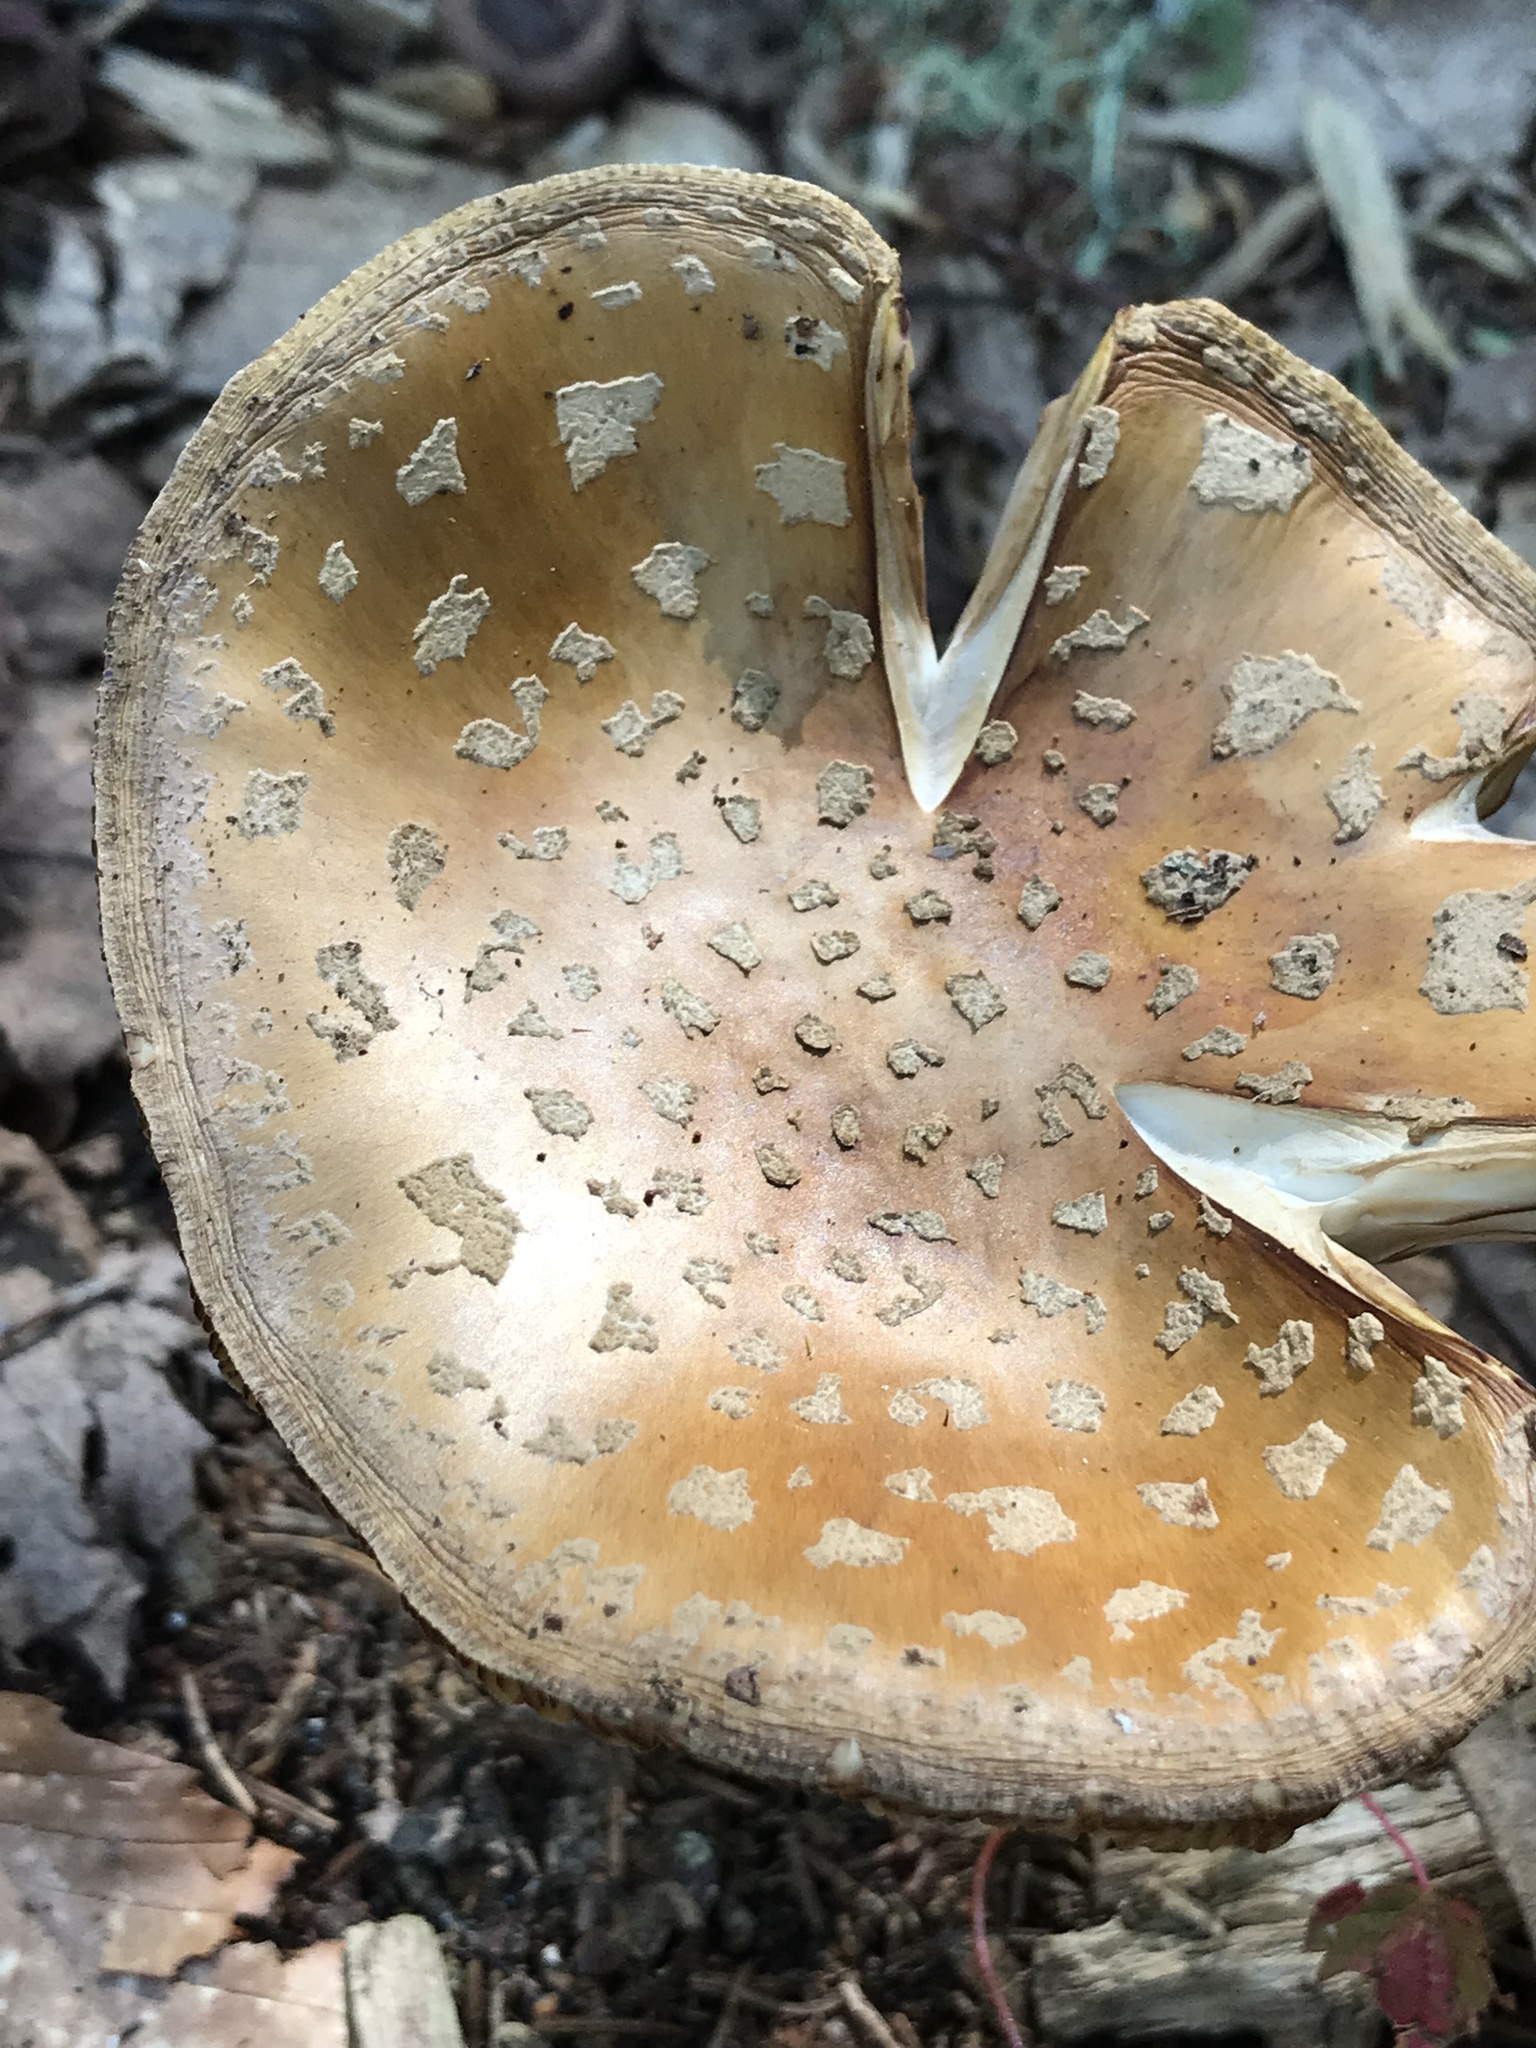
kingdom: Fungi
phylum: Basidiomycota
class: Agaricomycetes
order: Agaricales
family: Amanitaceae
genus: Amanita
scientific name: Amanita
